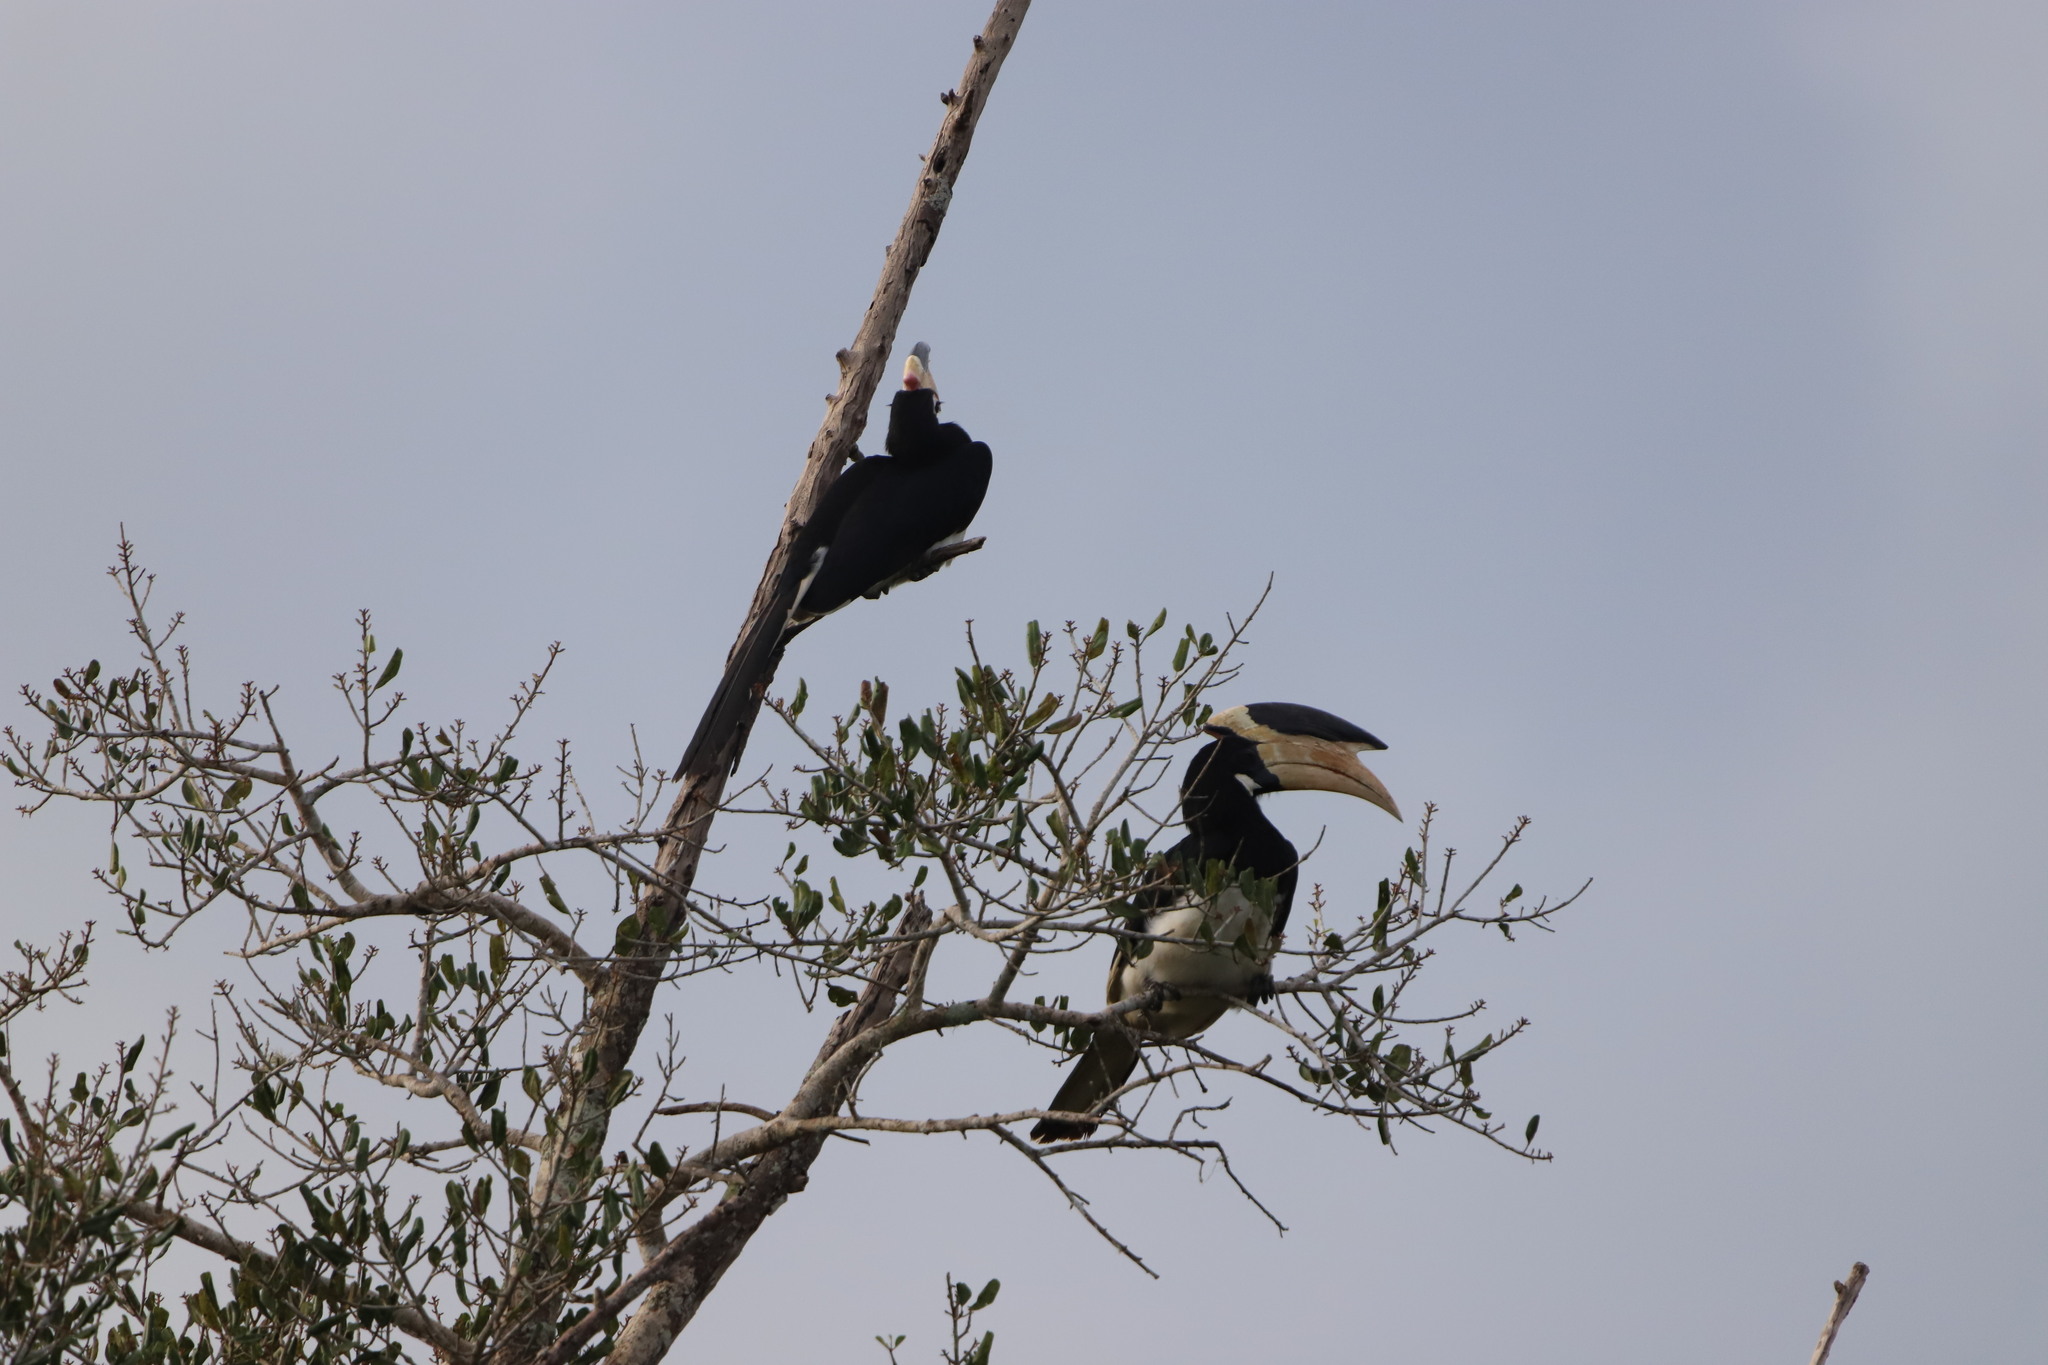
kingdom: Animalia
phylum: Chordata
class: Aves
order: Bucerotiformes
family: Bucerotidae
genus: Anthracoceros
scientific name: Anthracoceros coronatus
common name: Malabar pied hornbill
